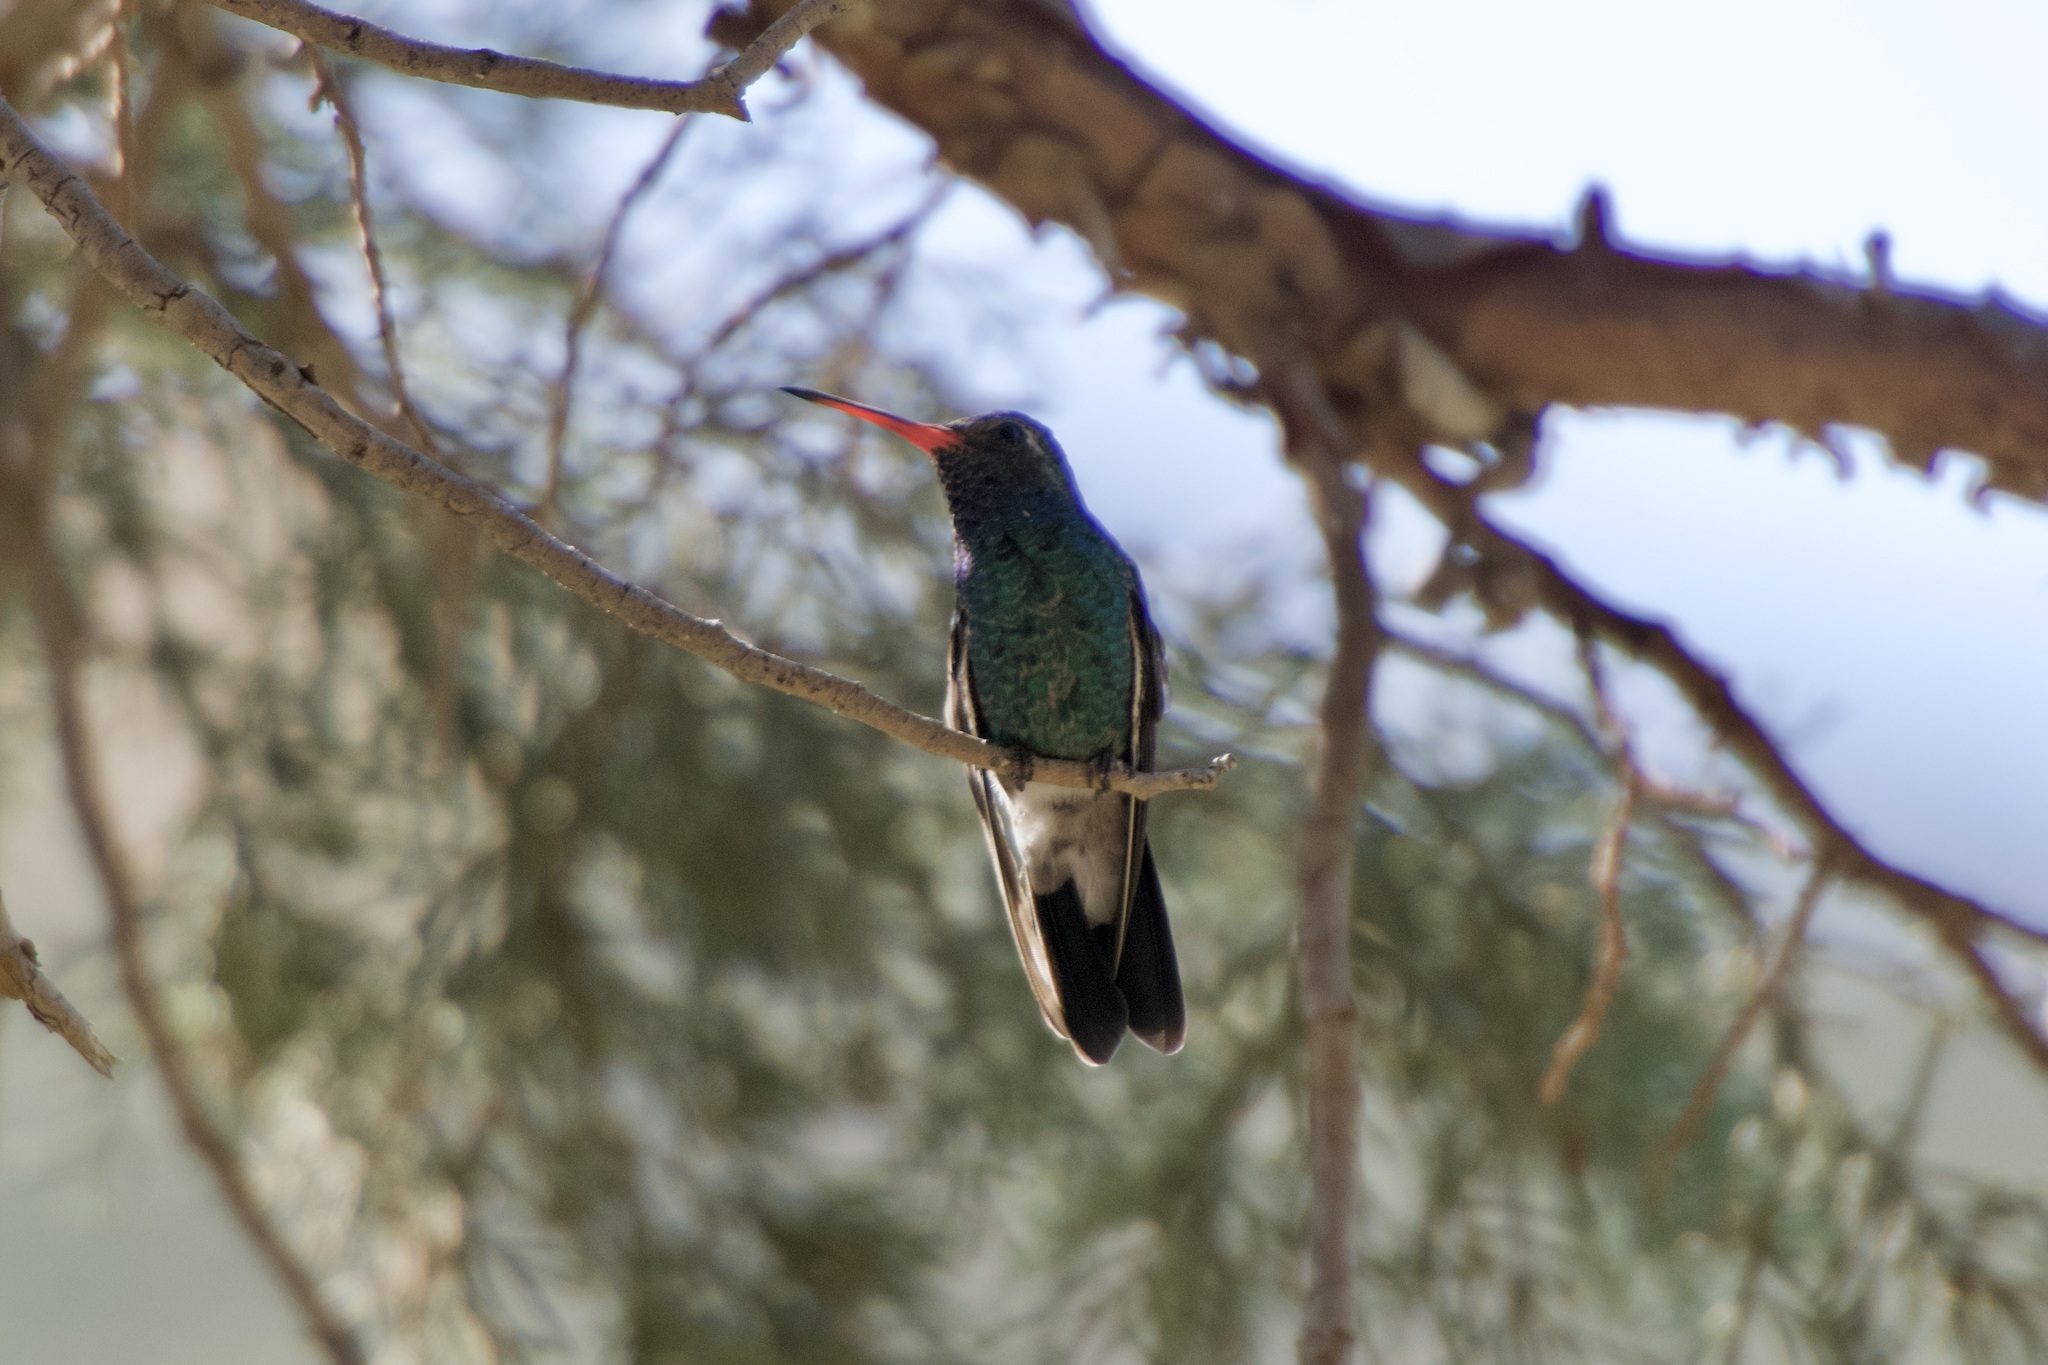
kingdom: Animalia
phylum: Chordata
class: Aves
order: Apodiformes
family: Trochilidae
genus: Cynanthus
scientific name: Cynanthus latirostris
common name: Broad-billed hummingbird
